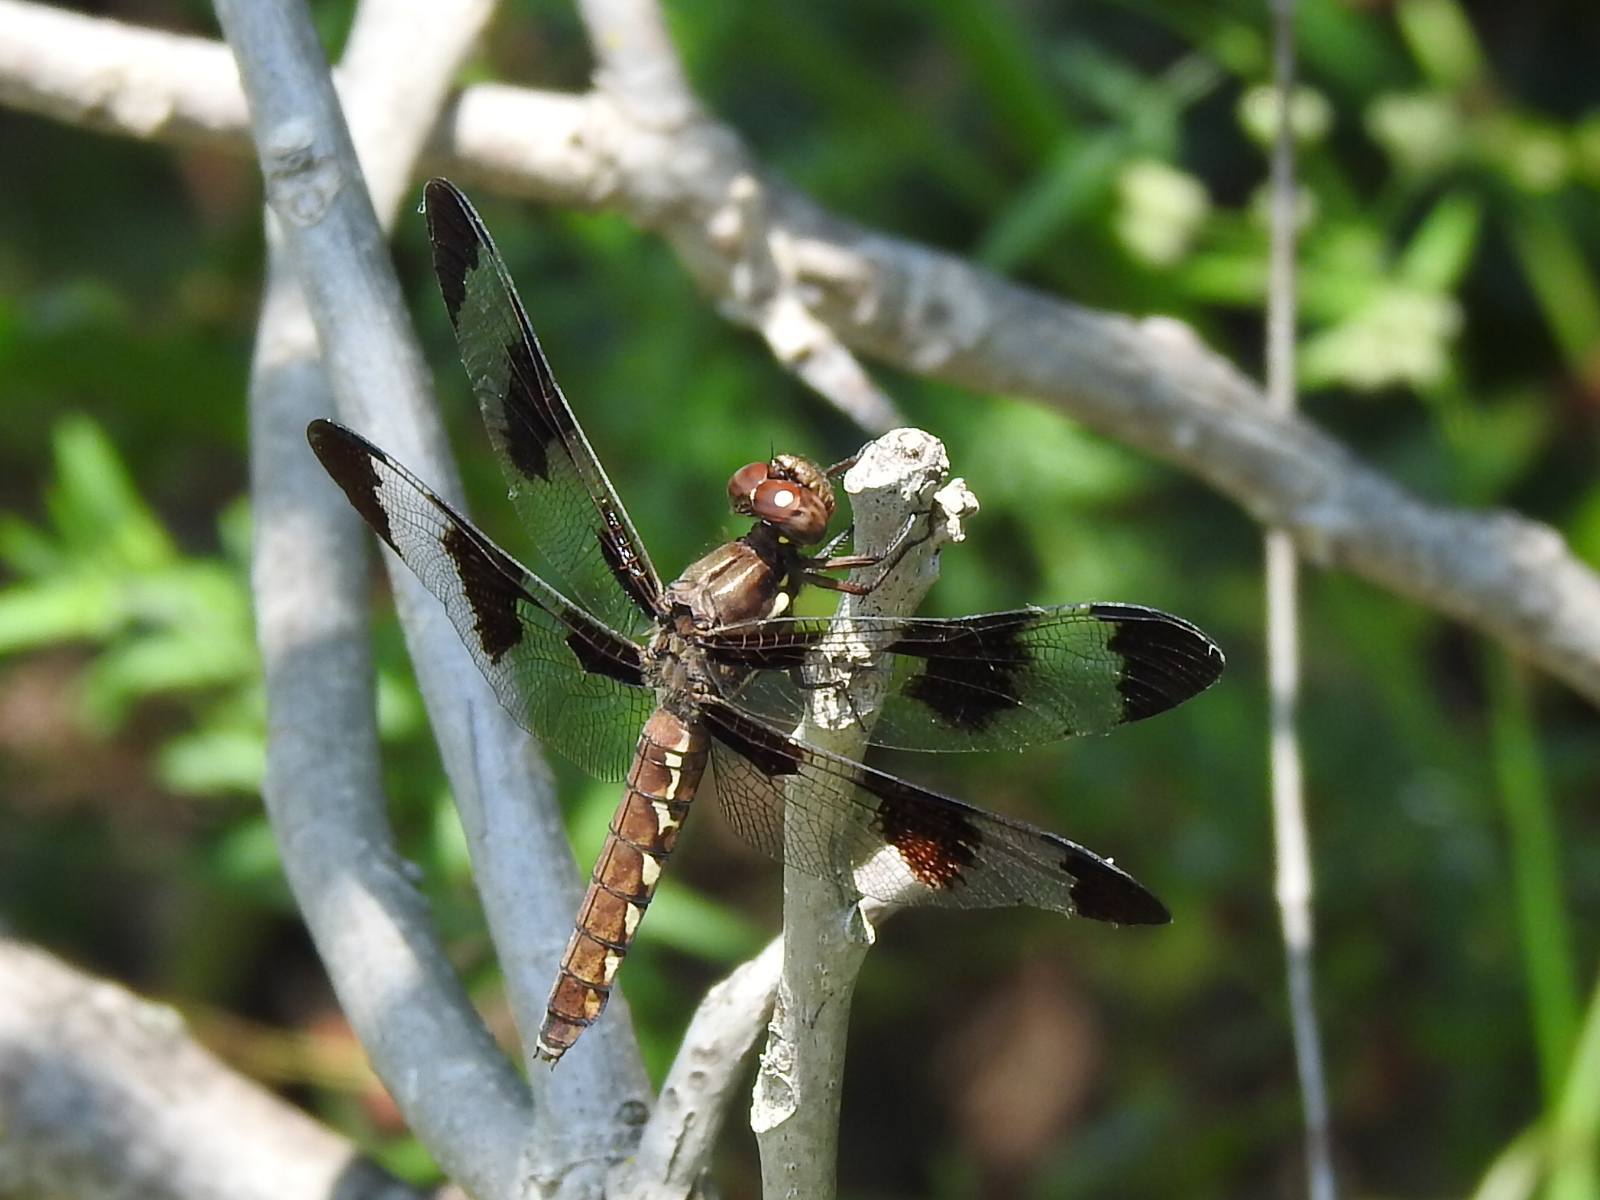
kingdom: Animalia
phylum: Arthropoda
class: Insecta
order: Odonata
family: Libellulidae
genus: Plathemis
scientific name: Plathemis lydia
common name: Common whitetail
